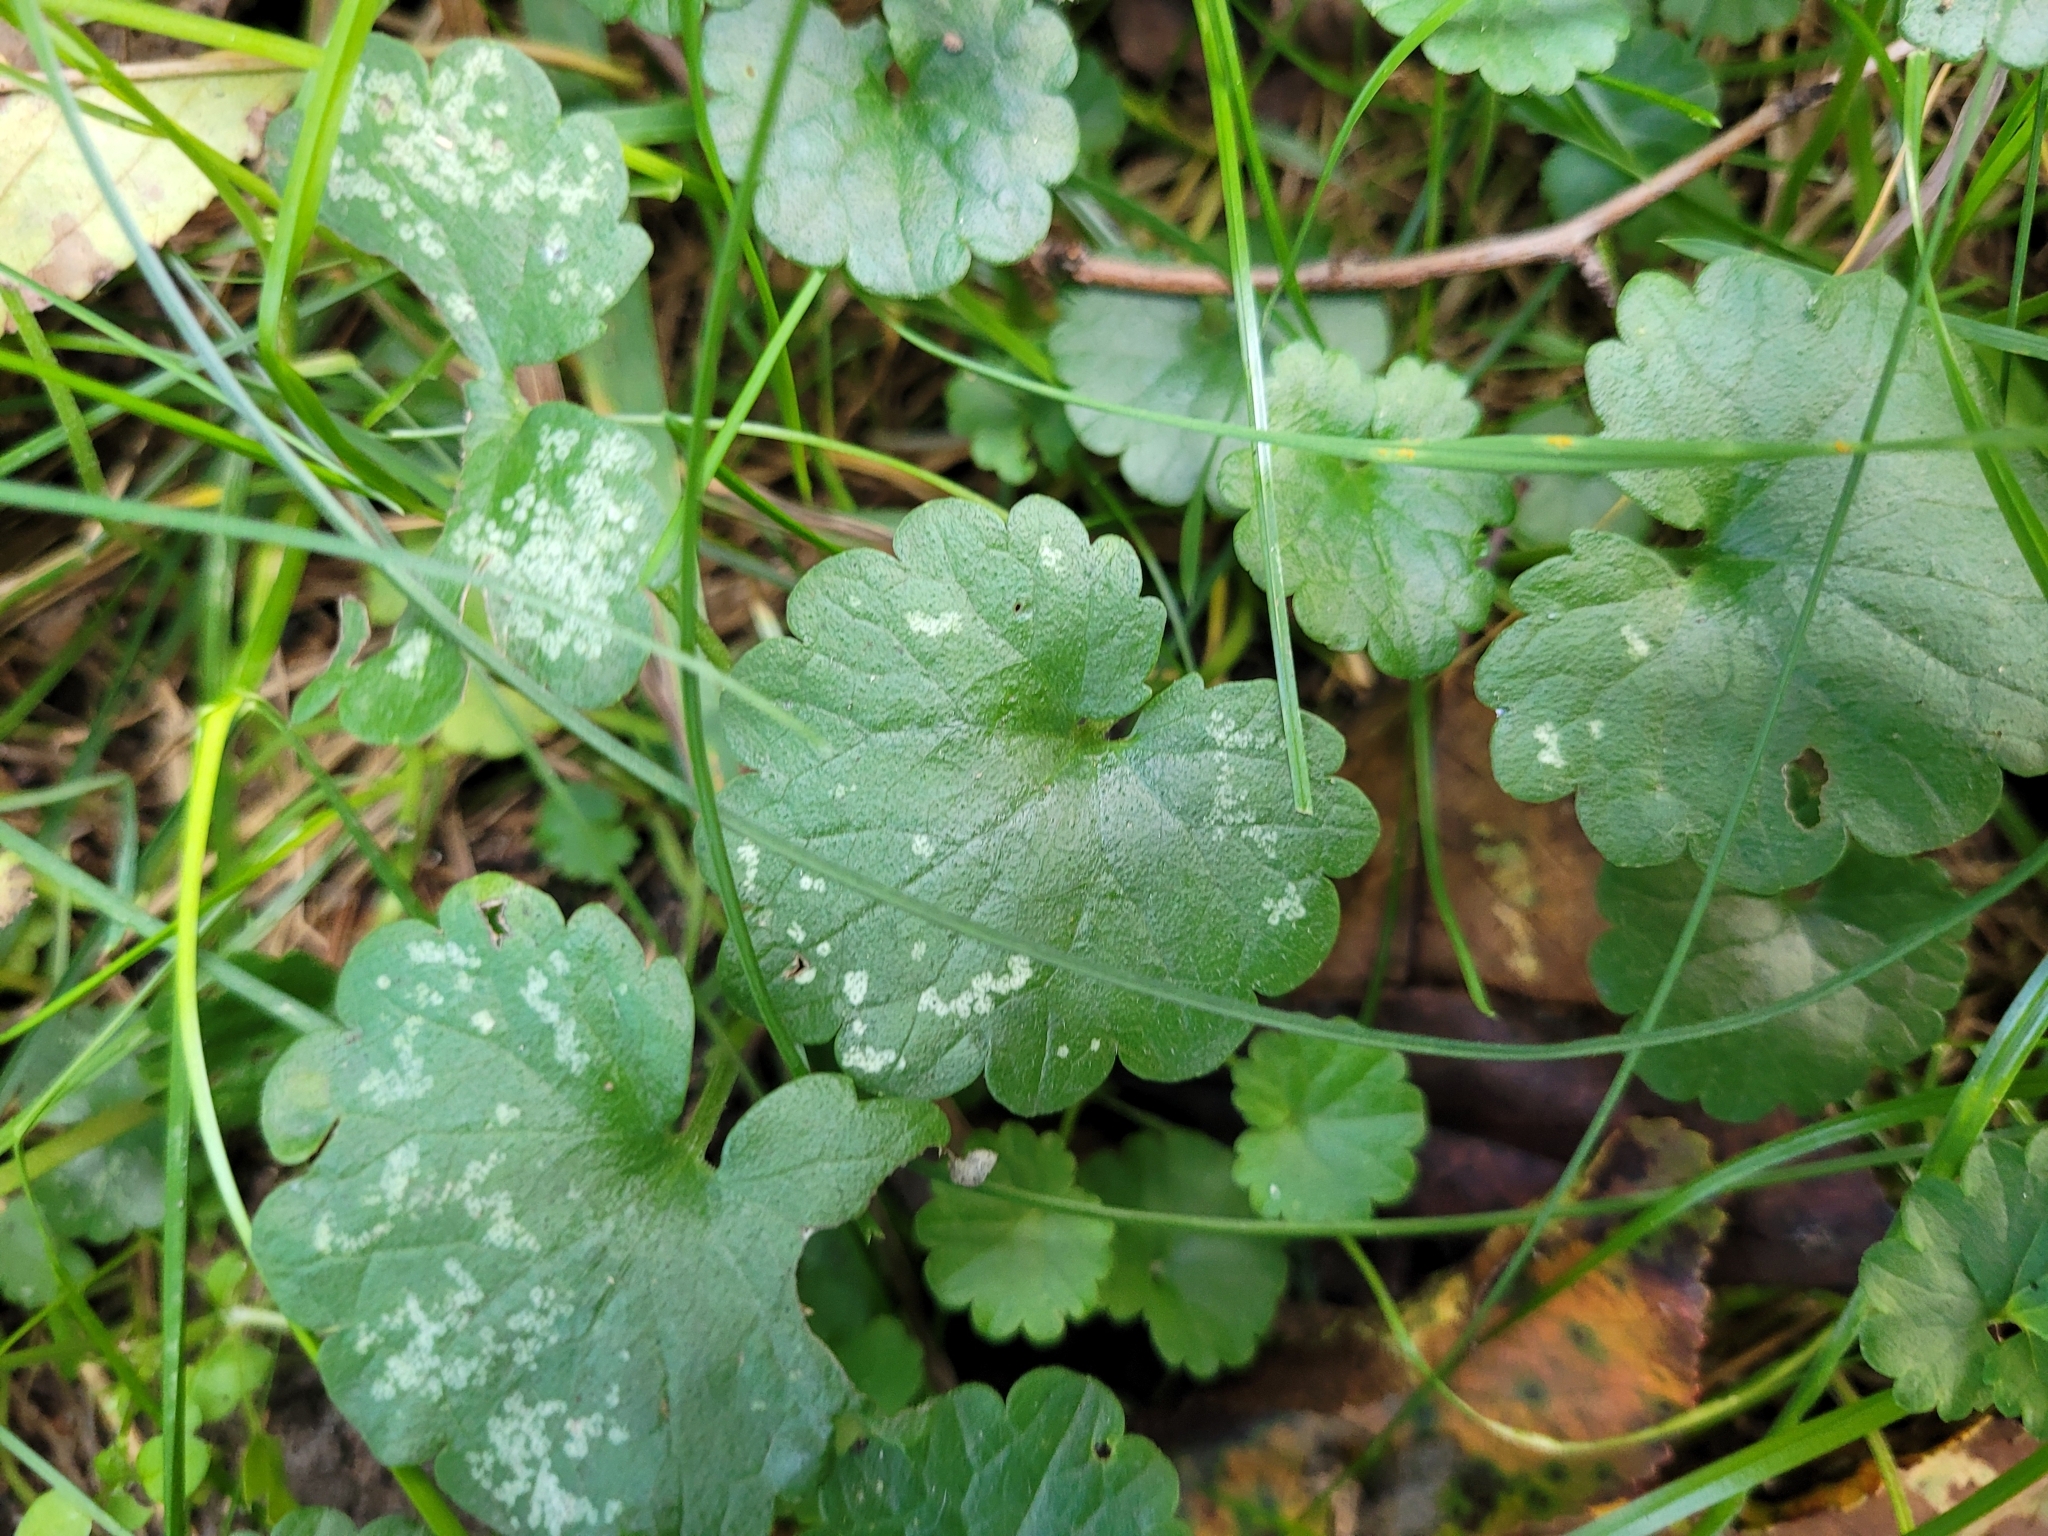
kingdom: Plantae
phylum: Tracheophyta
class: Magnoliopsida
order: Lamiales
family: Lamiaceae
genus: Glechoma
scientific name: Glechoma hederacea
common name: Ground ivy
